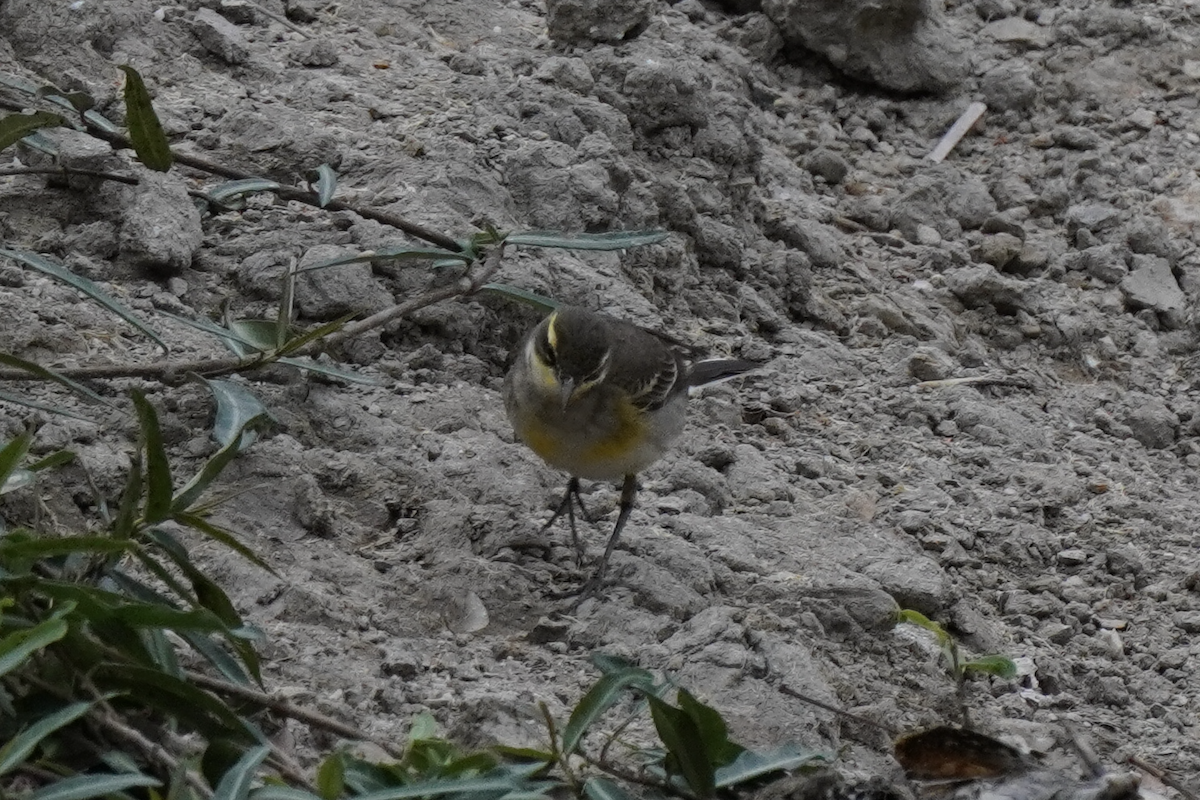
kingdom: Animalia
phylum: Chordata
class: Aves
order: Passeriformes
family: Motacillidae
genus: Motacilla
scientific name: Motacilla tschutschensis
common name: Eastern yellow wagtail
